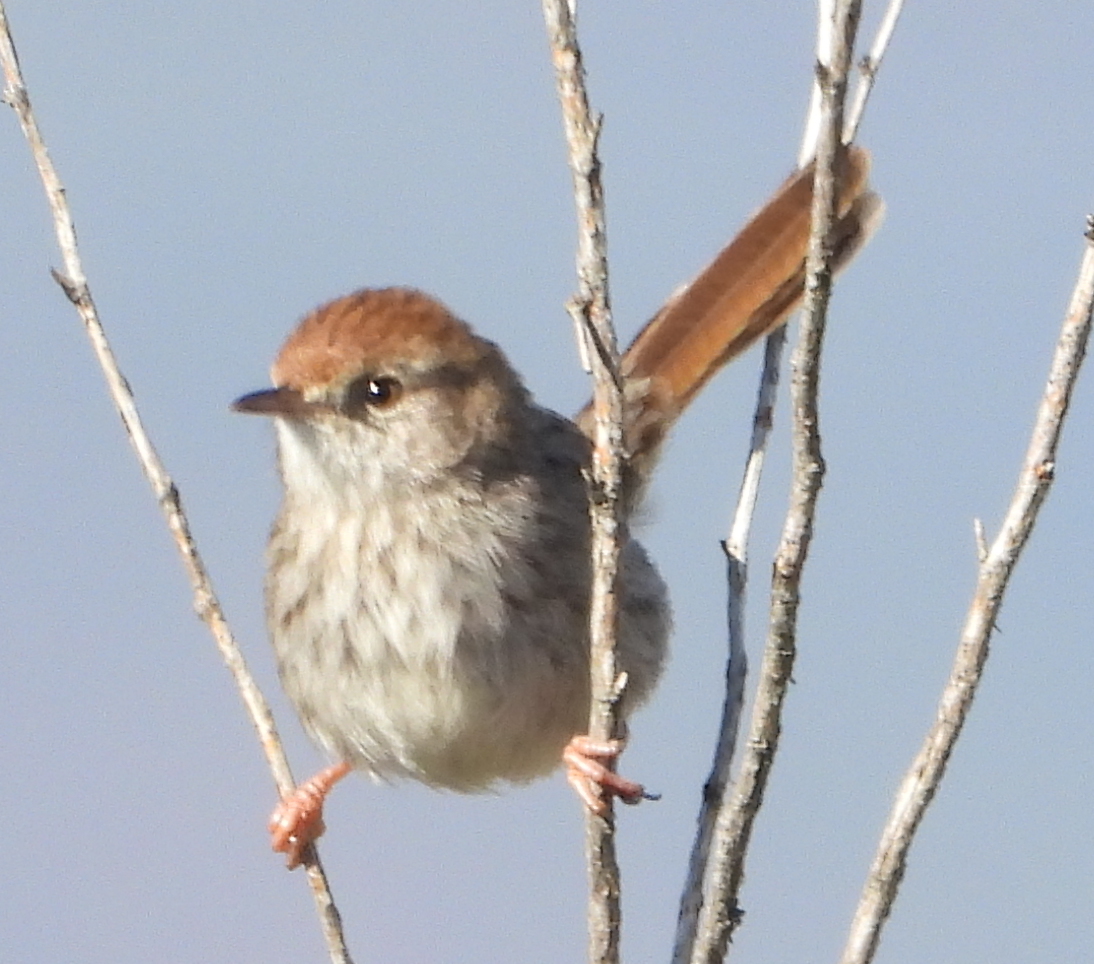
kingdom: Animalia
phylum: Chordata
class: Aves
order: Passeriformes
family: Cisticolidae
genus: Cisticola
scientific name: Cisticola subruficapilla
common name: Grey-backed cisticola
